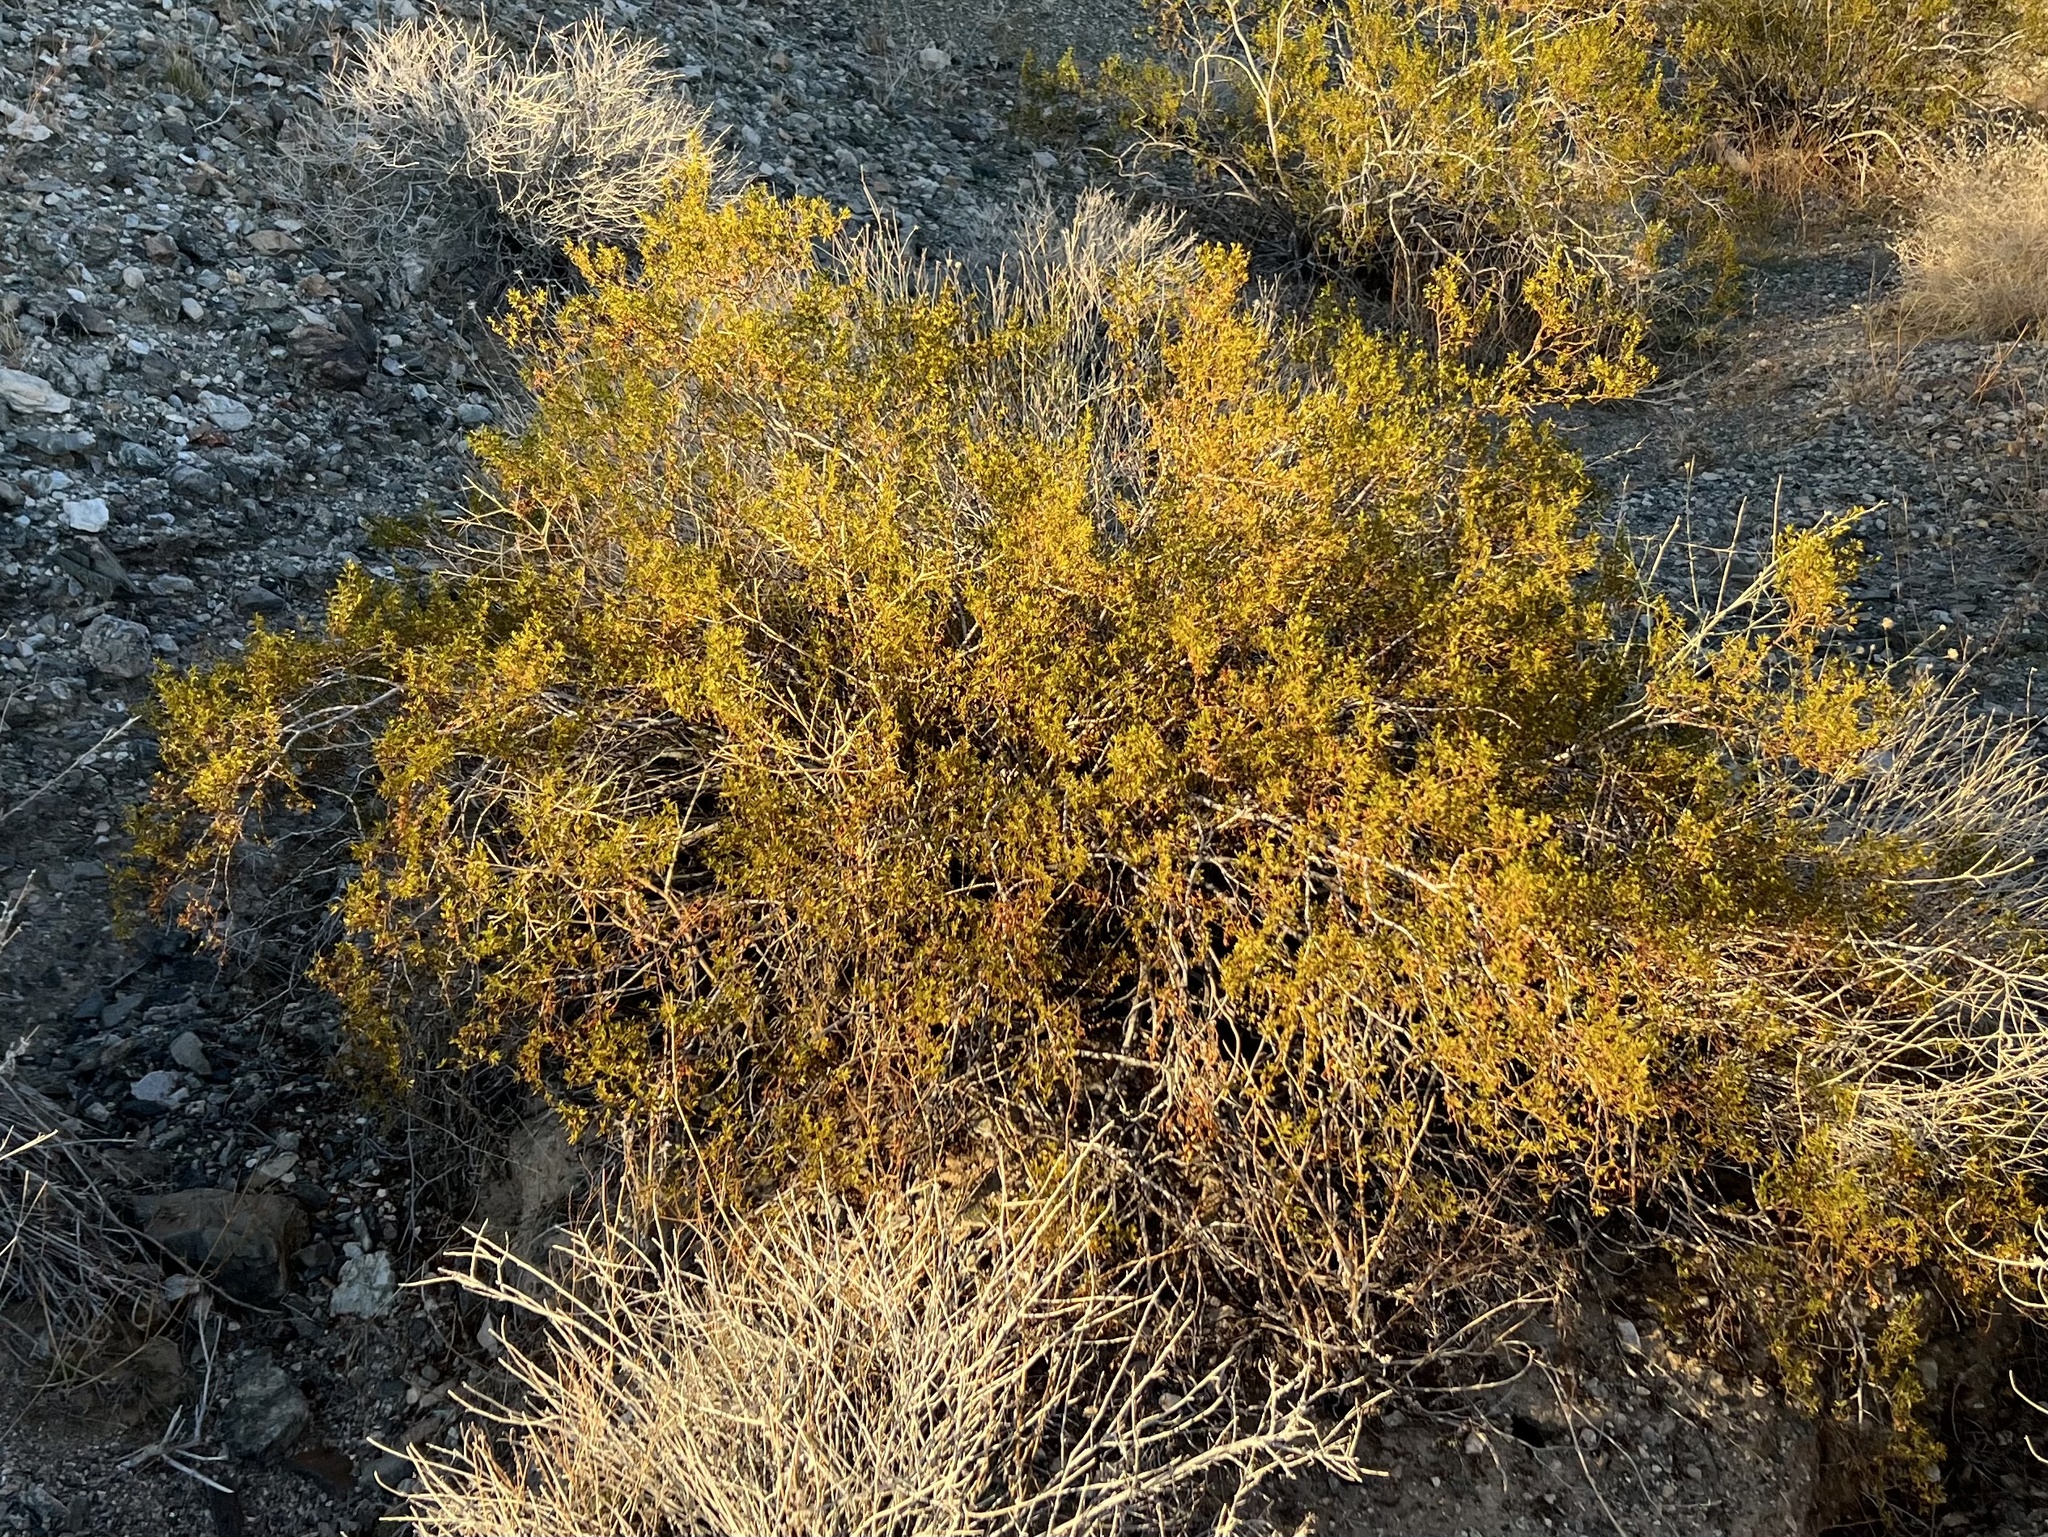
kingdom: Plantae
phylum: Tracheophyta
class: Magnoliopsida
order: Zygophyllales
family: Zygophyllaceae
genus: Larrea
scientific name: Larrea tridentata
